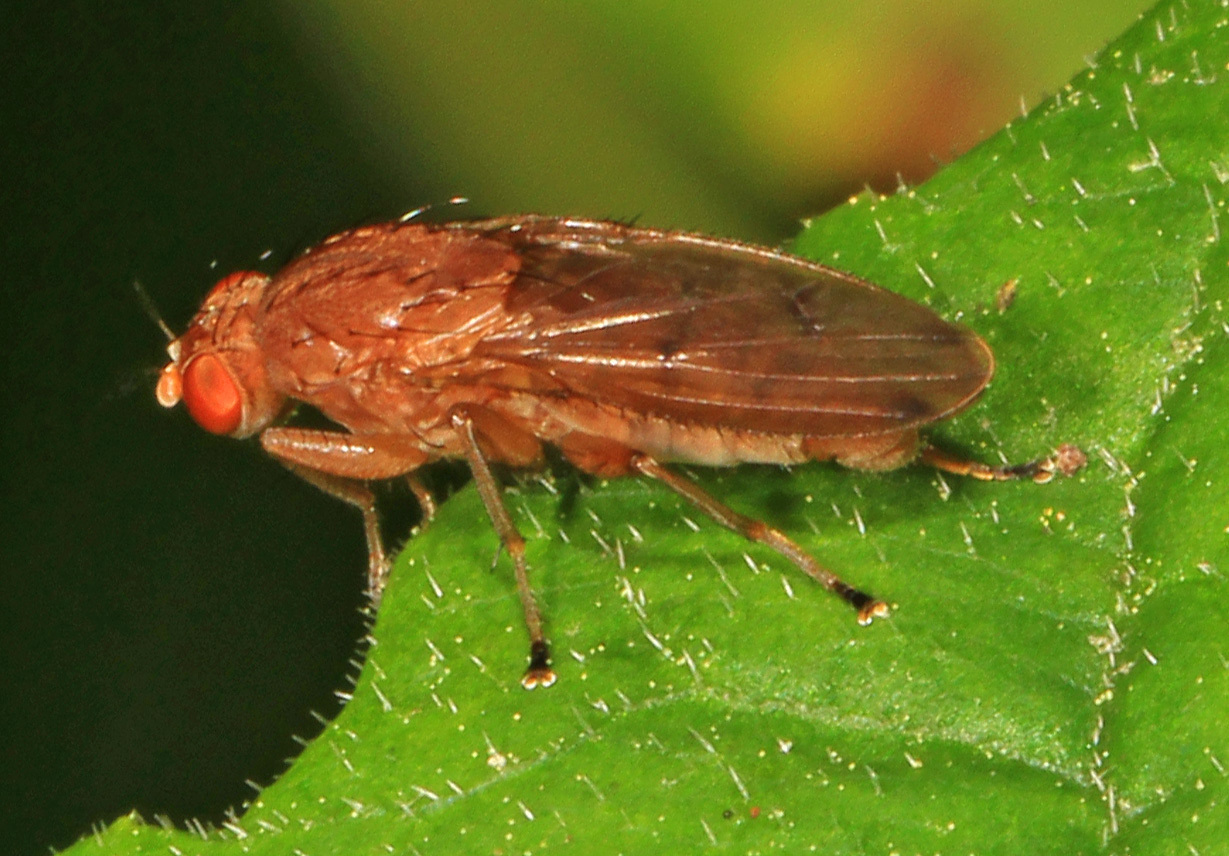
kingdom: Animalia
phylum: Arthropoda
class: Insecta
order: Diptera
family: Heleomyzidae
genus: Suillia
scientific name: Suillia quinquepunctata
